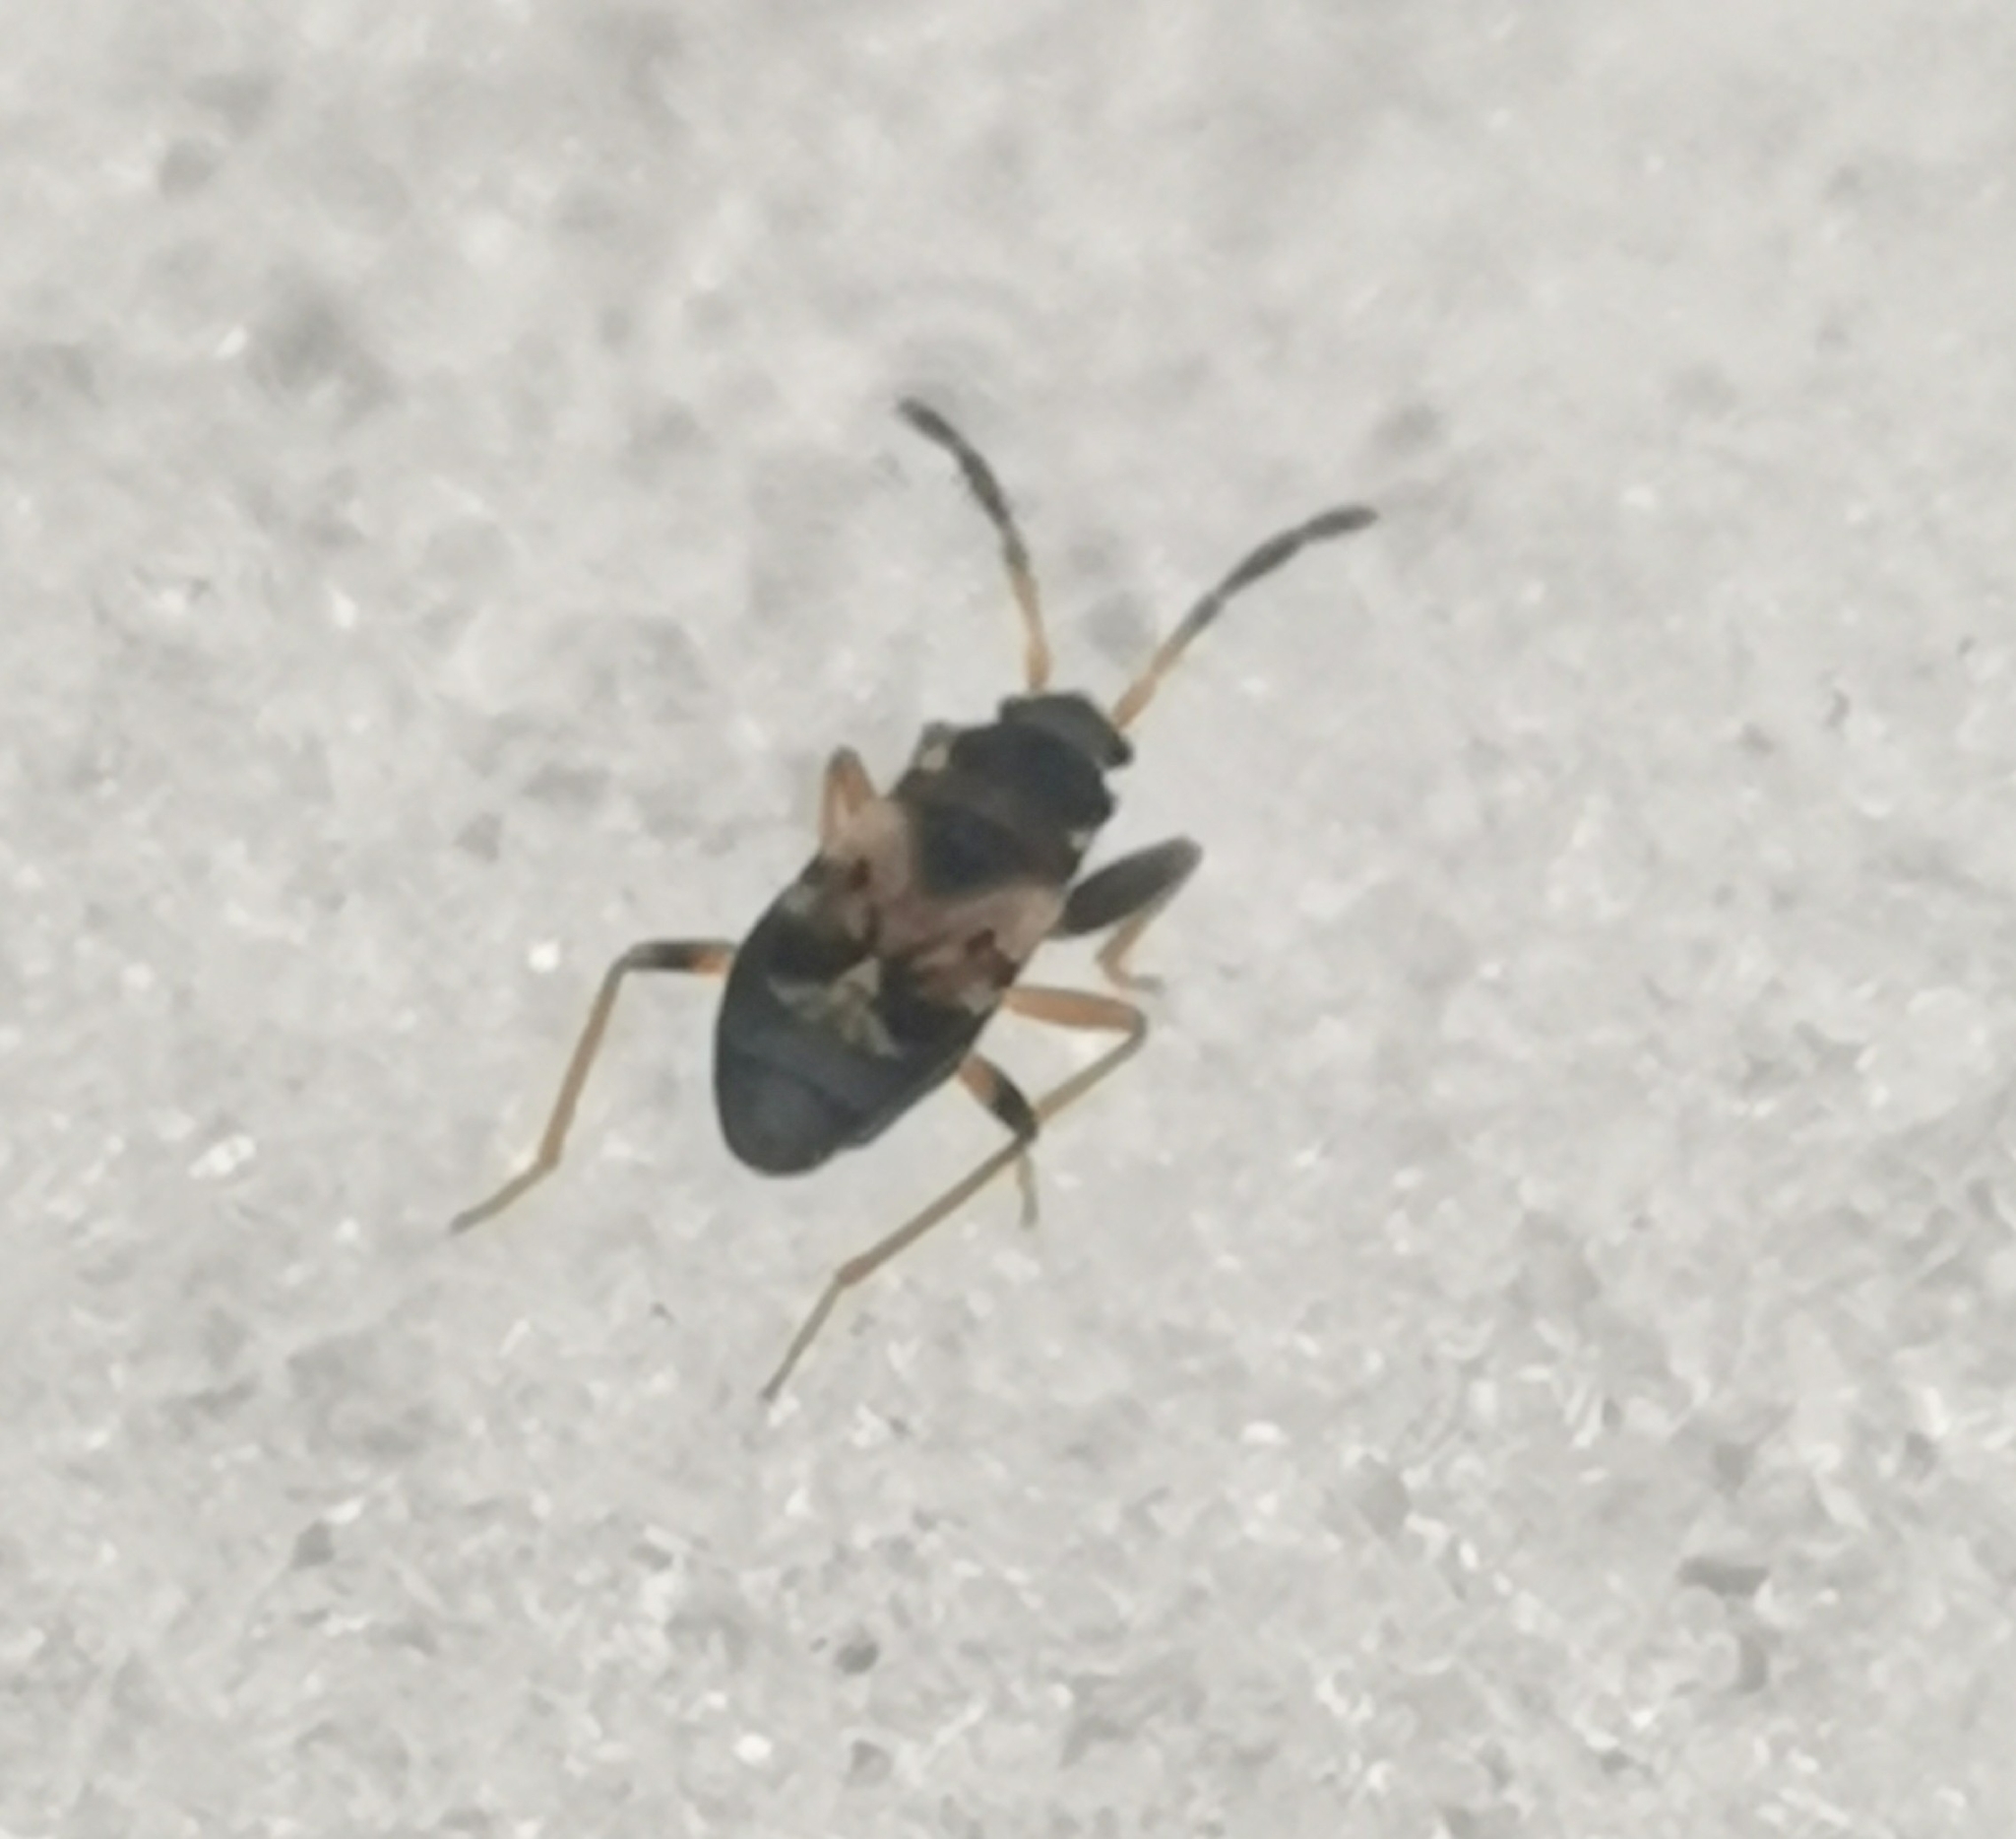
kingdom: Animalia
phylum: Arthropoda
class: Insecta
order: Hemiptera
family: Rhyparochromidae
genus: Scolopostethus
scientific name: Scolopostethus thomsoni
